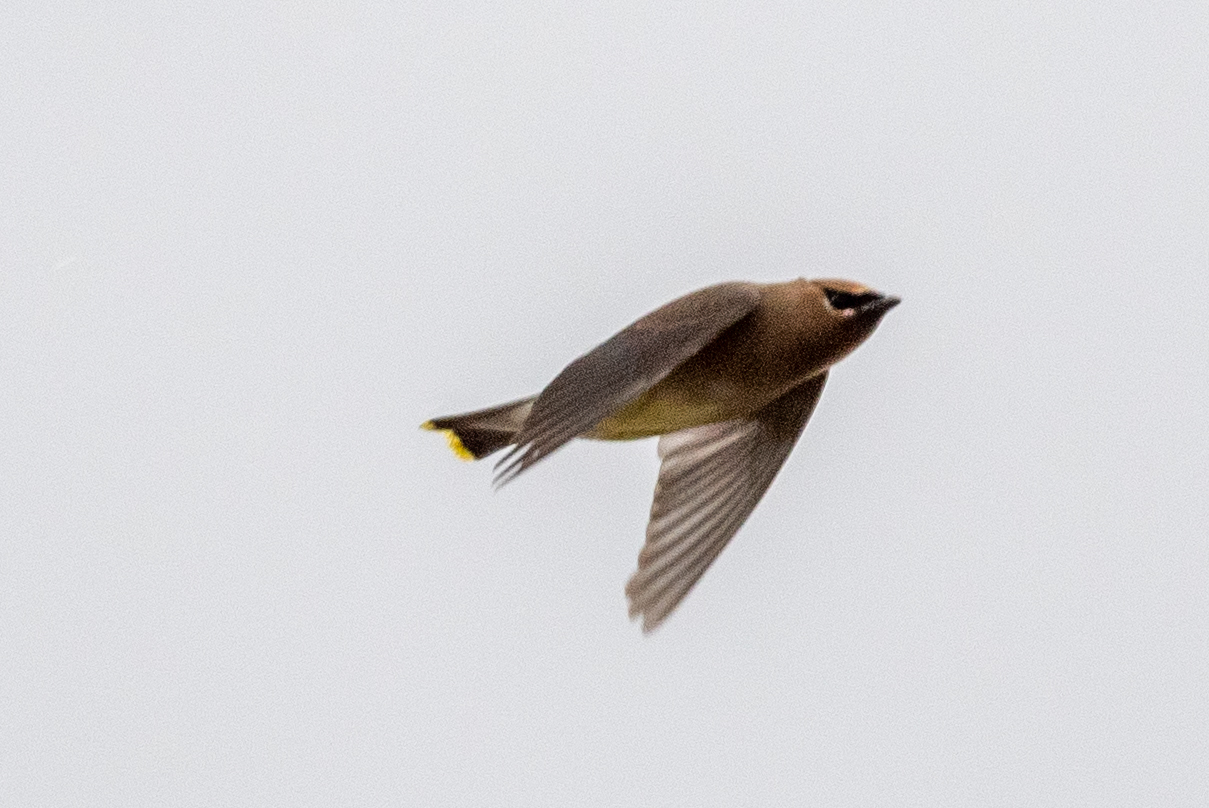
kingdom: Animalia
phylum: Chordata
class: Aves
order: Passeriformes
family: Bombycillidae
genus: Bombycilla
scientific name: Bombycilla cedrorum
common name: Cedar waxwing
